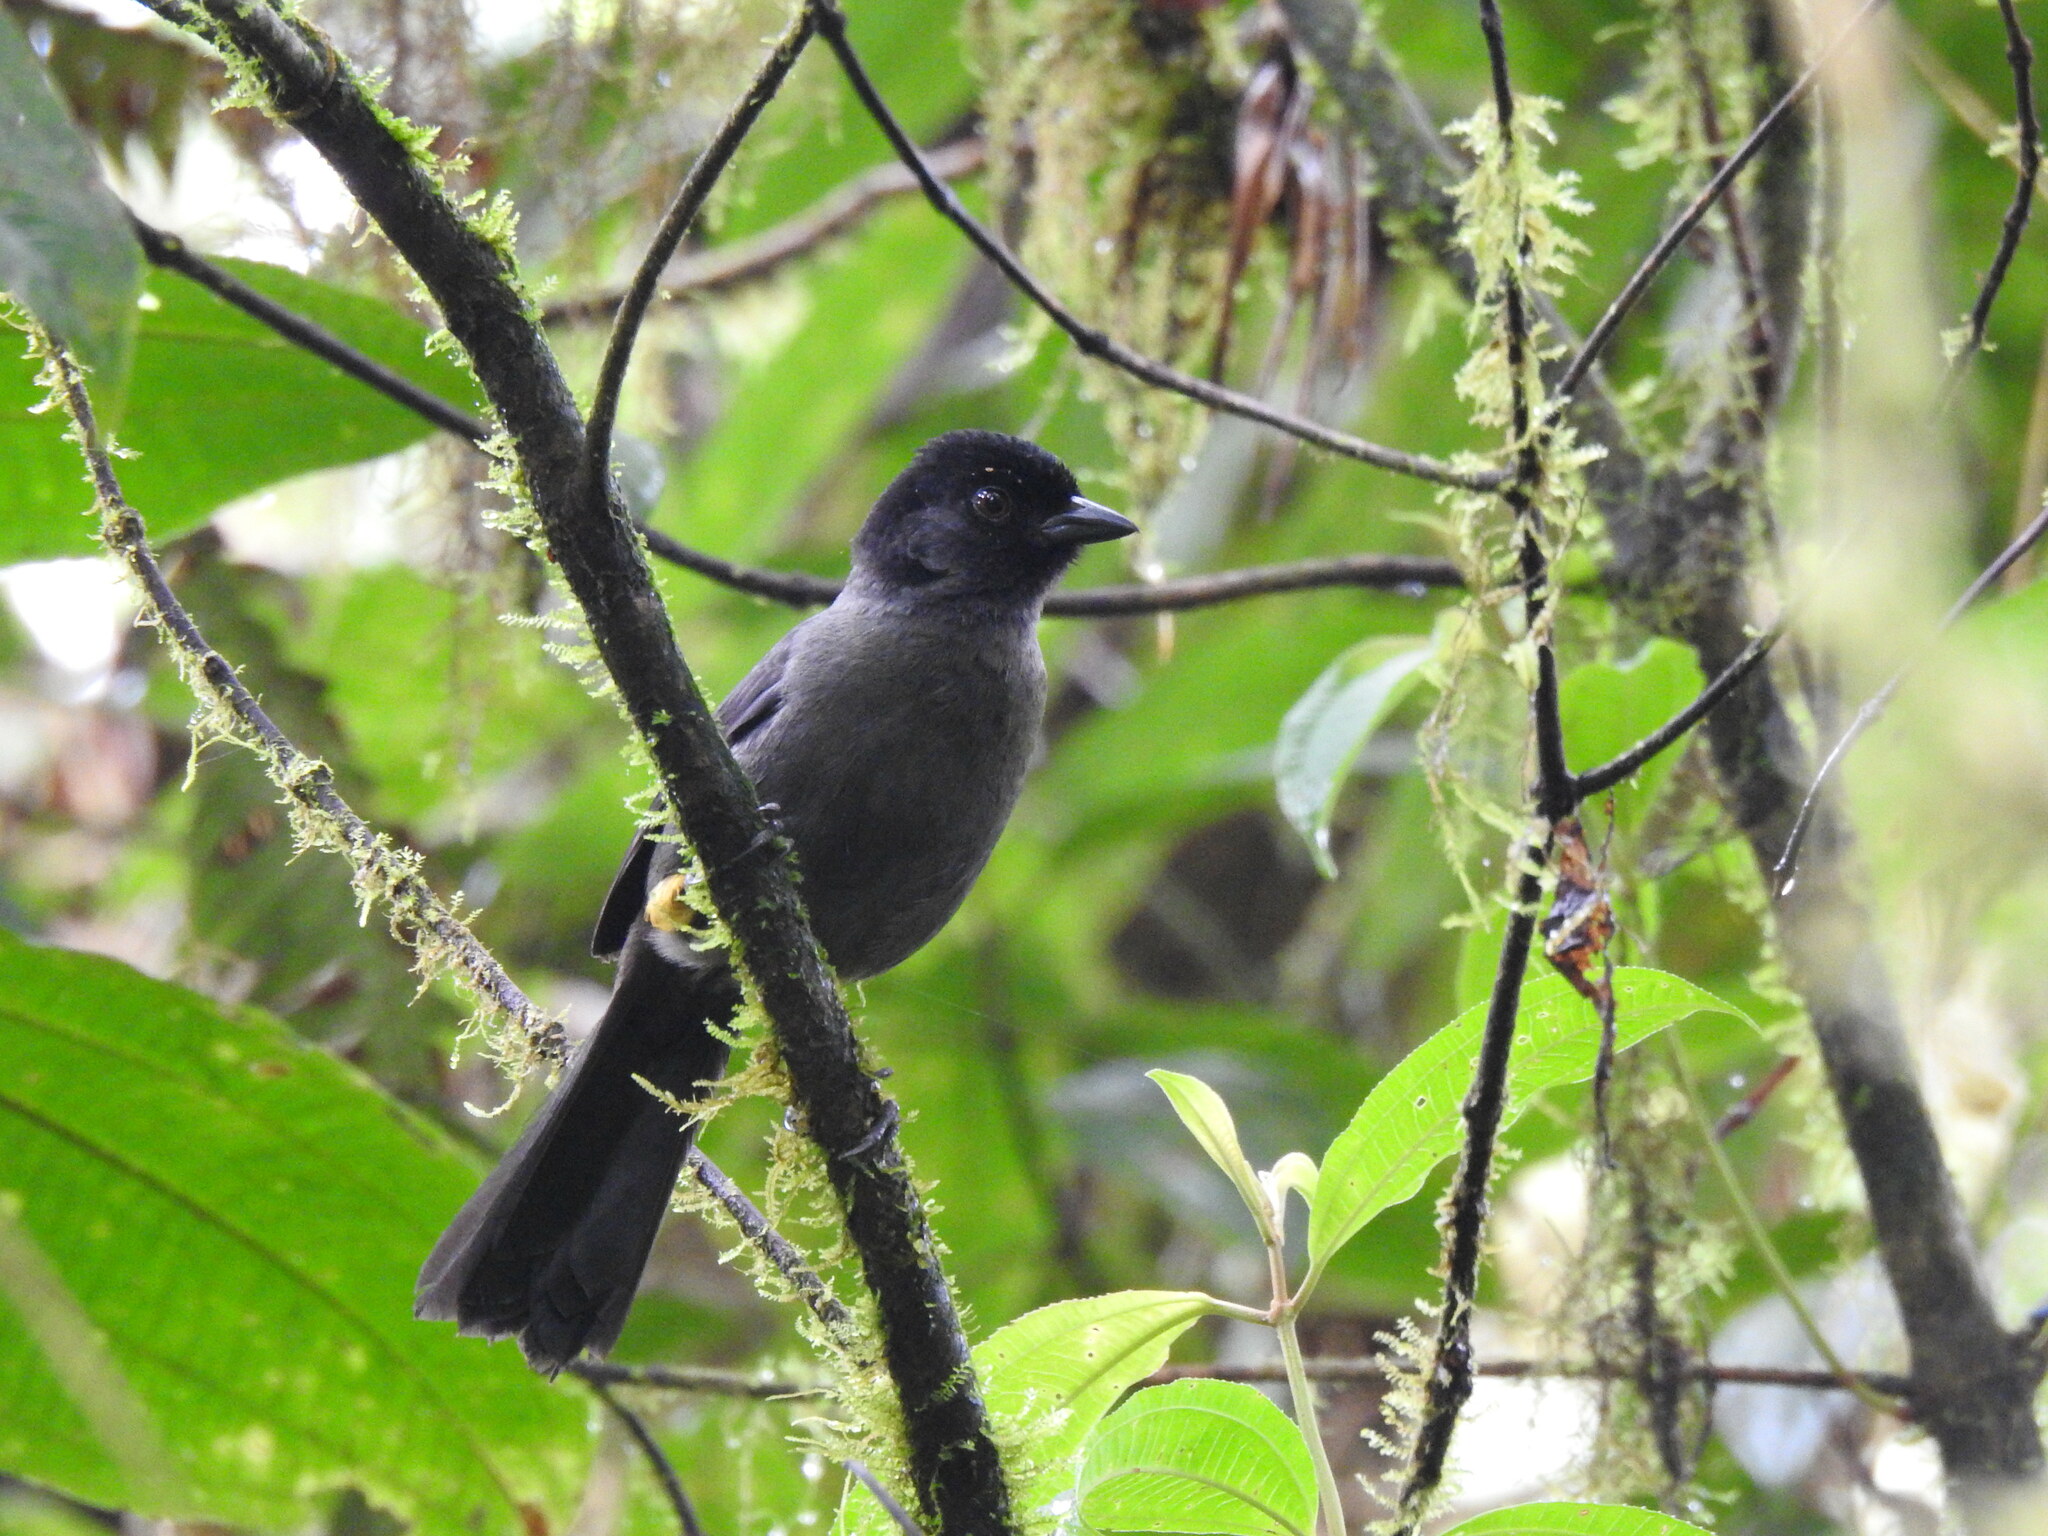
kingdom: Animalia
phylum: Chordata
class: Aves
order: Passeriformes
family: Passerellidae
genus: Atlapetes
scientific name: Atlapetes tibialis
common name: Yellow-thighed brushfinch
